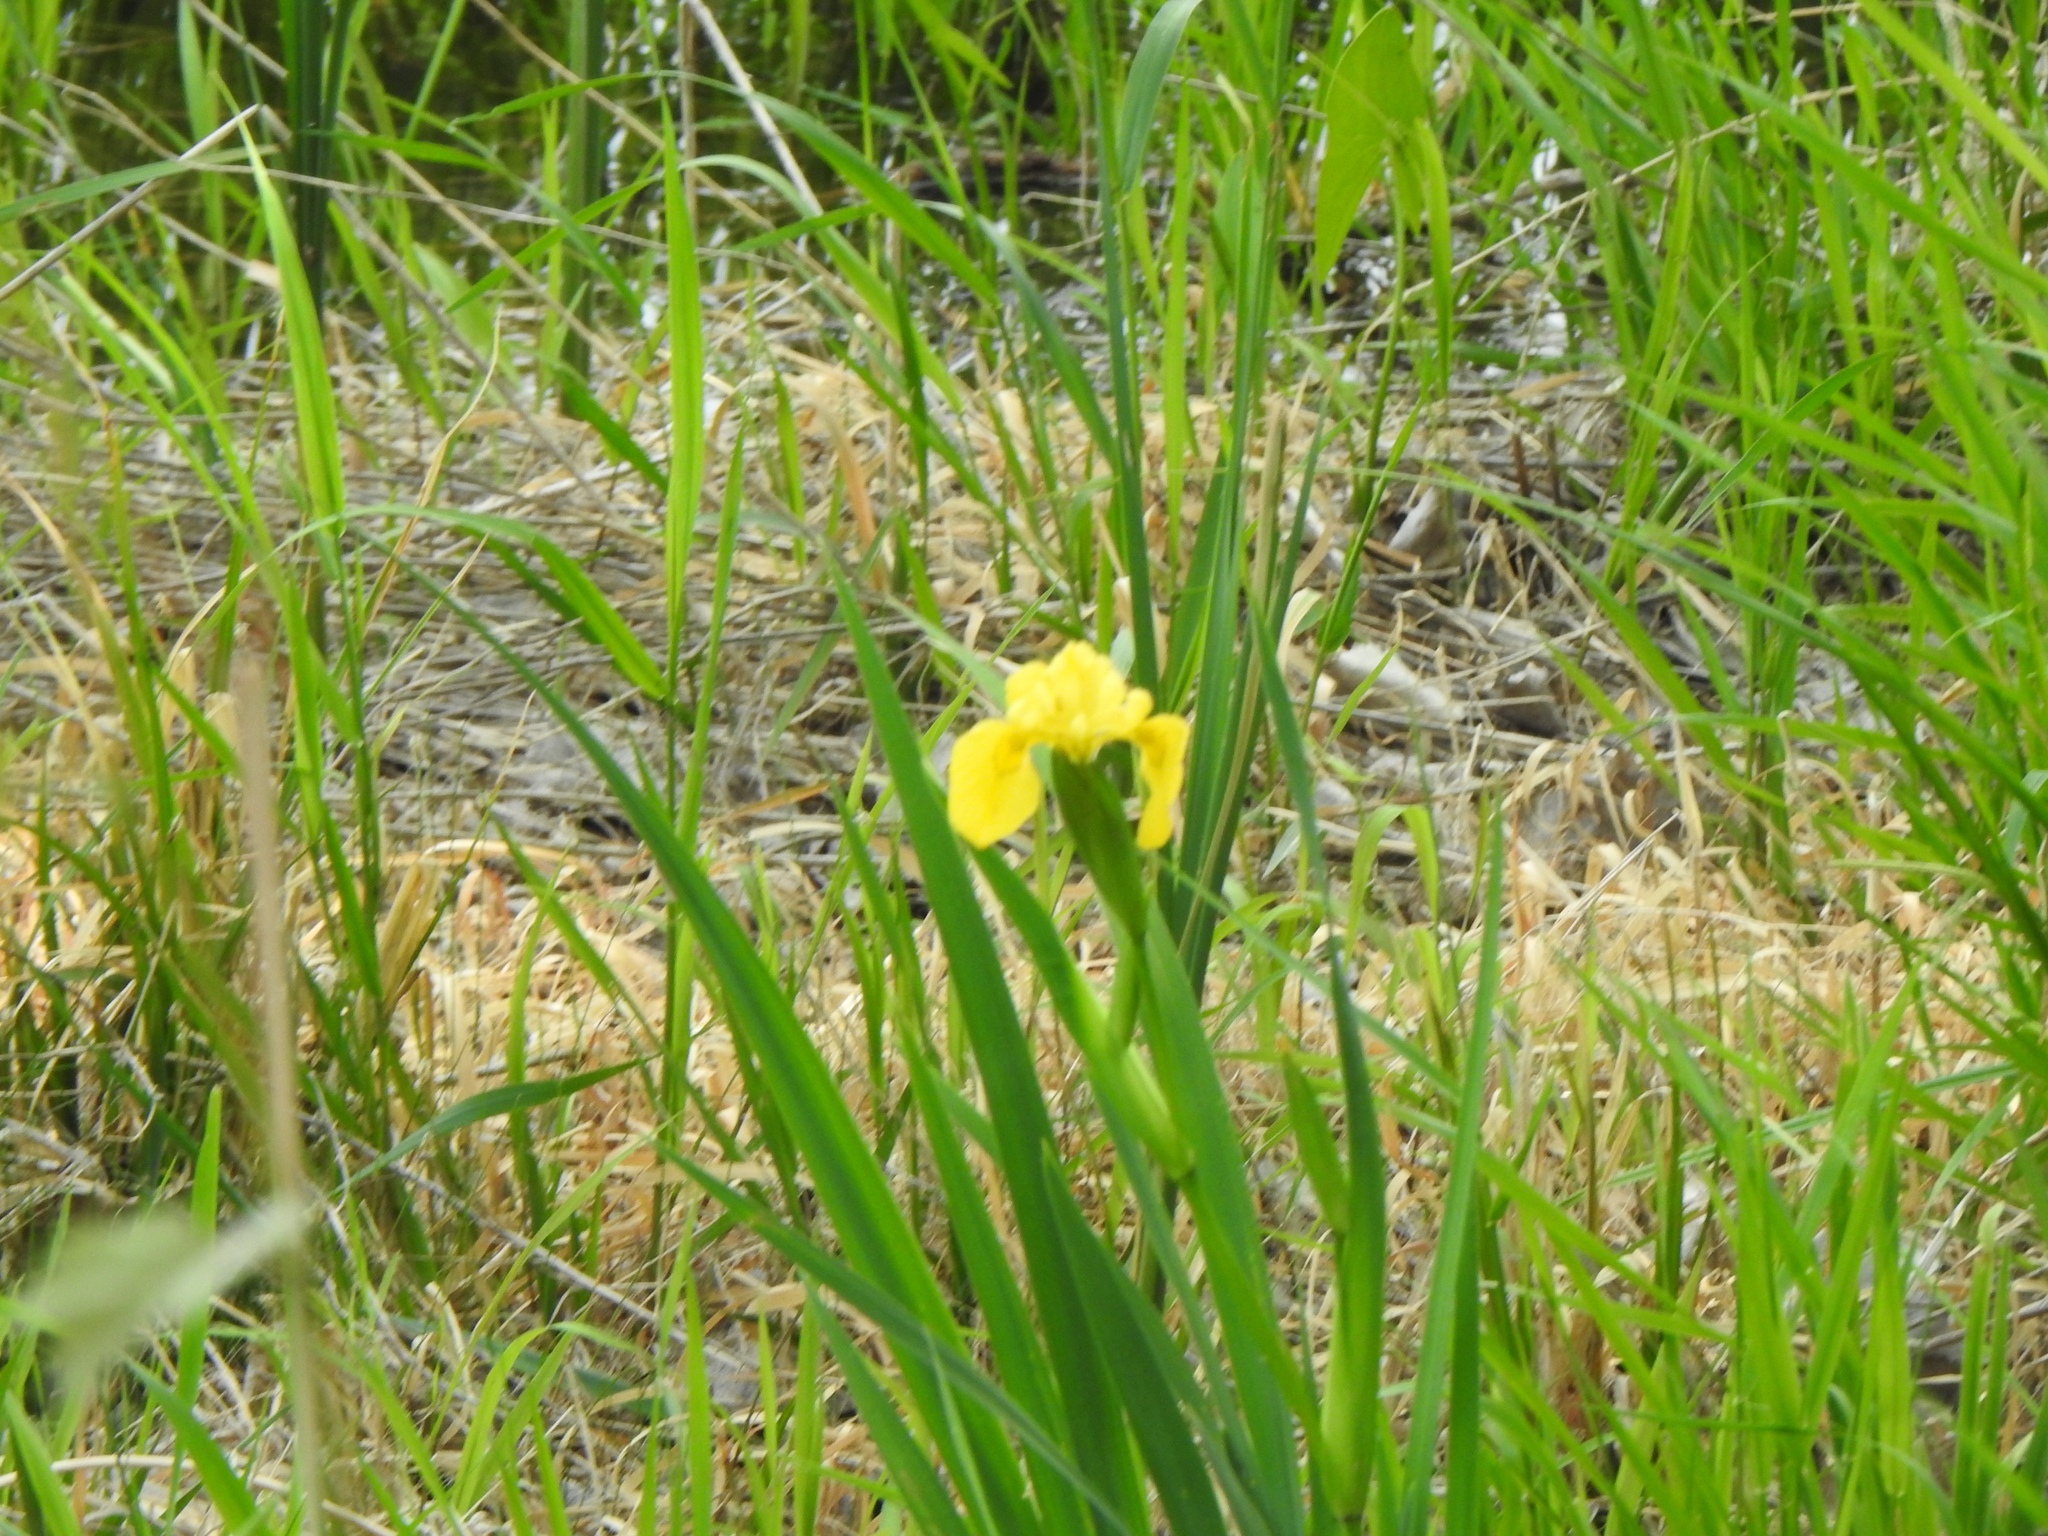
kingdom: Plantae
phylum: Tracheophyta
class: Liliopsida
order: Asparagales
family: Iridaceae
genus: Iris
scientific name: Iris pseudacorus
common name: Yellow flag
